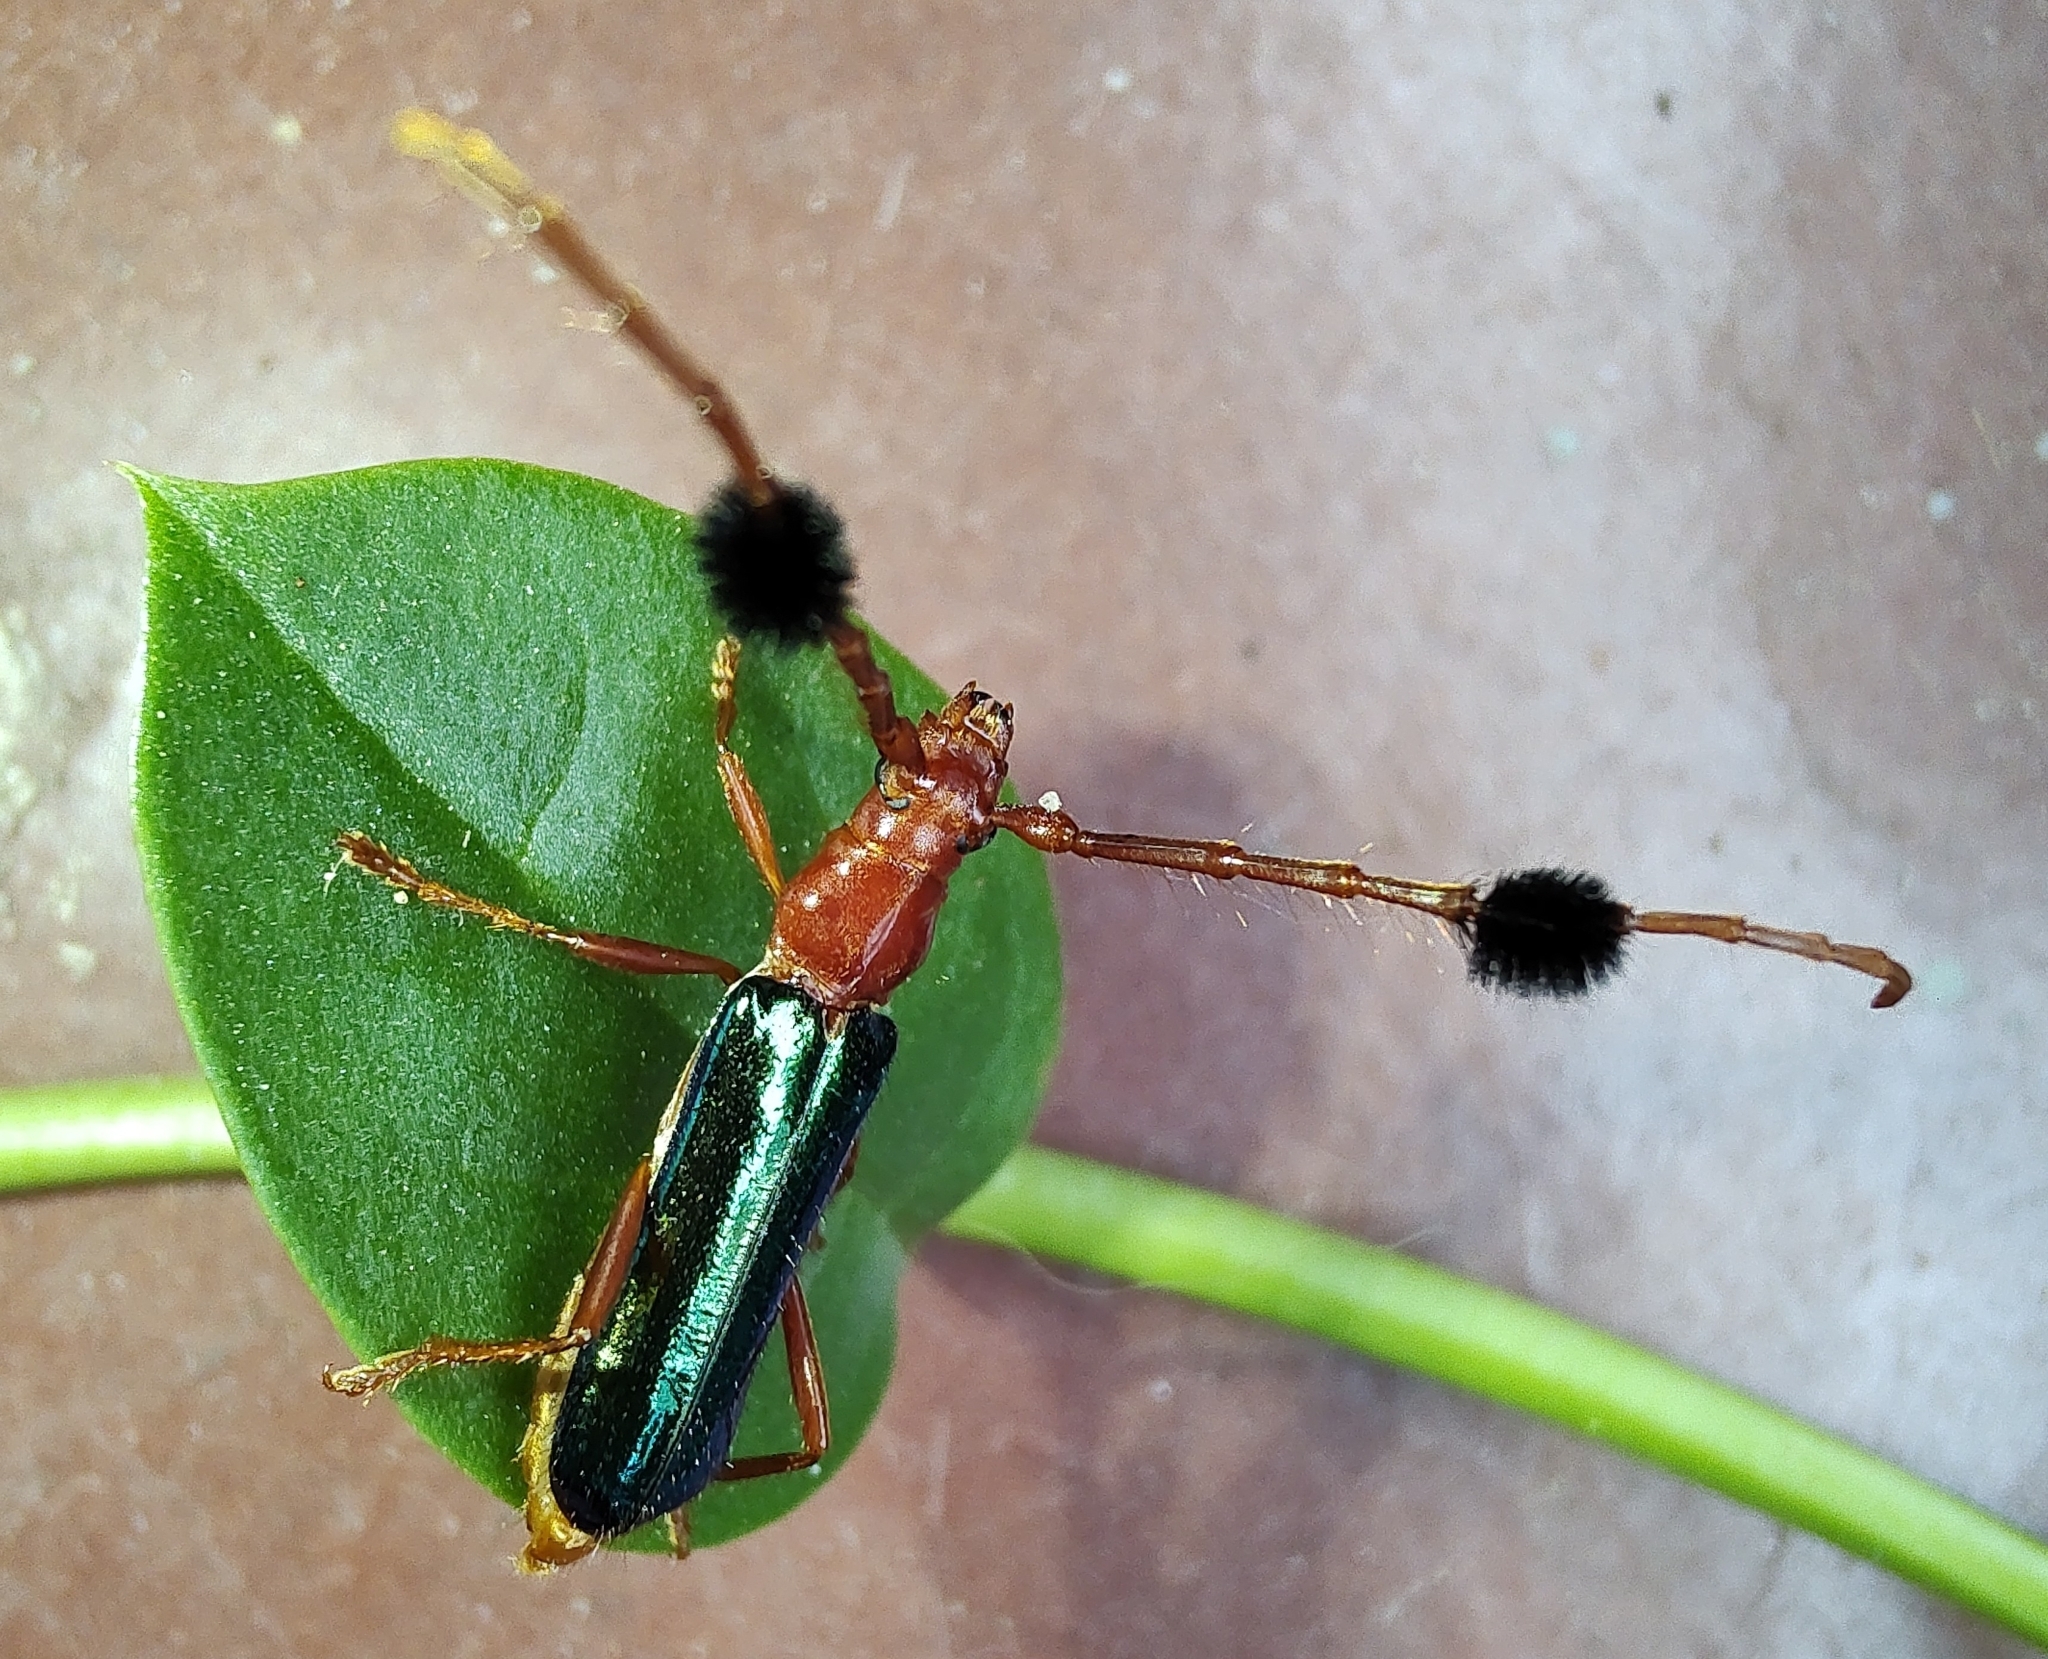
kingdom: Animalia
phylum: Arthropoda
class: Insecta
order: Coleoptera
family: Cerambycidae
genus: Paromoeocerus
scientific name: Paromoeocerus barbicornis
